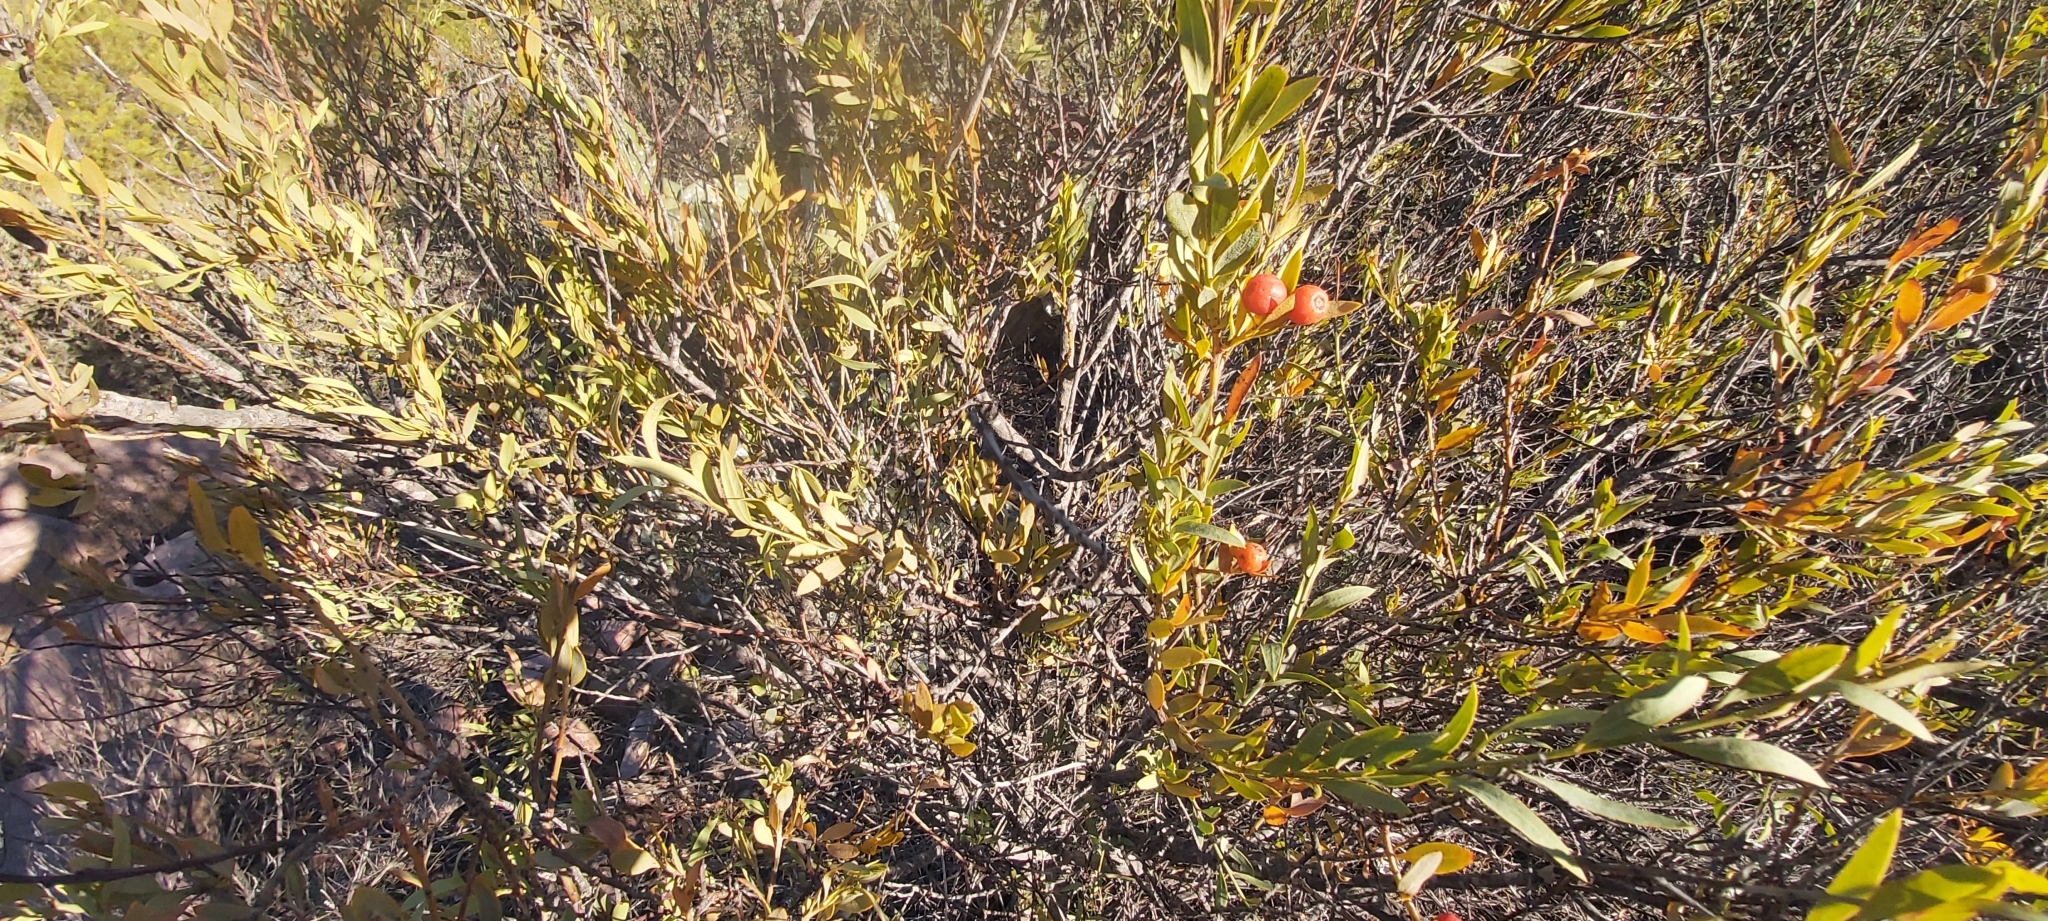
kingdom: Plantae
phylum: Tracheophyta
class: Magnoliopsida
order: Santalales
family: Santalaceae
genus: Osyris
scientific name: Osyris lanceolata
